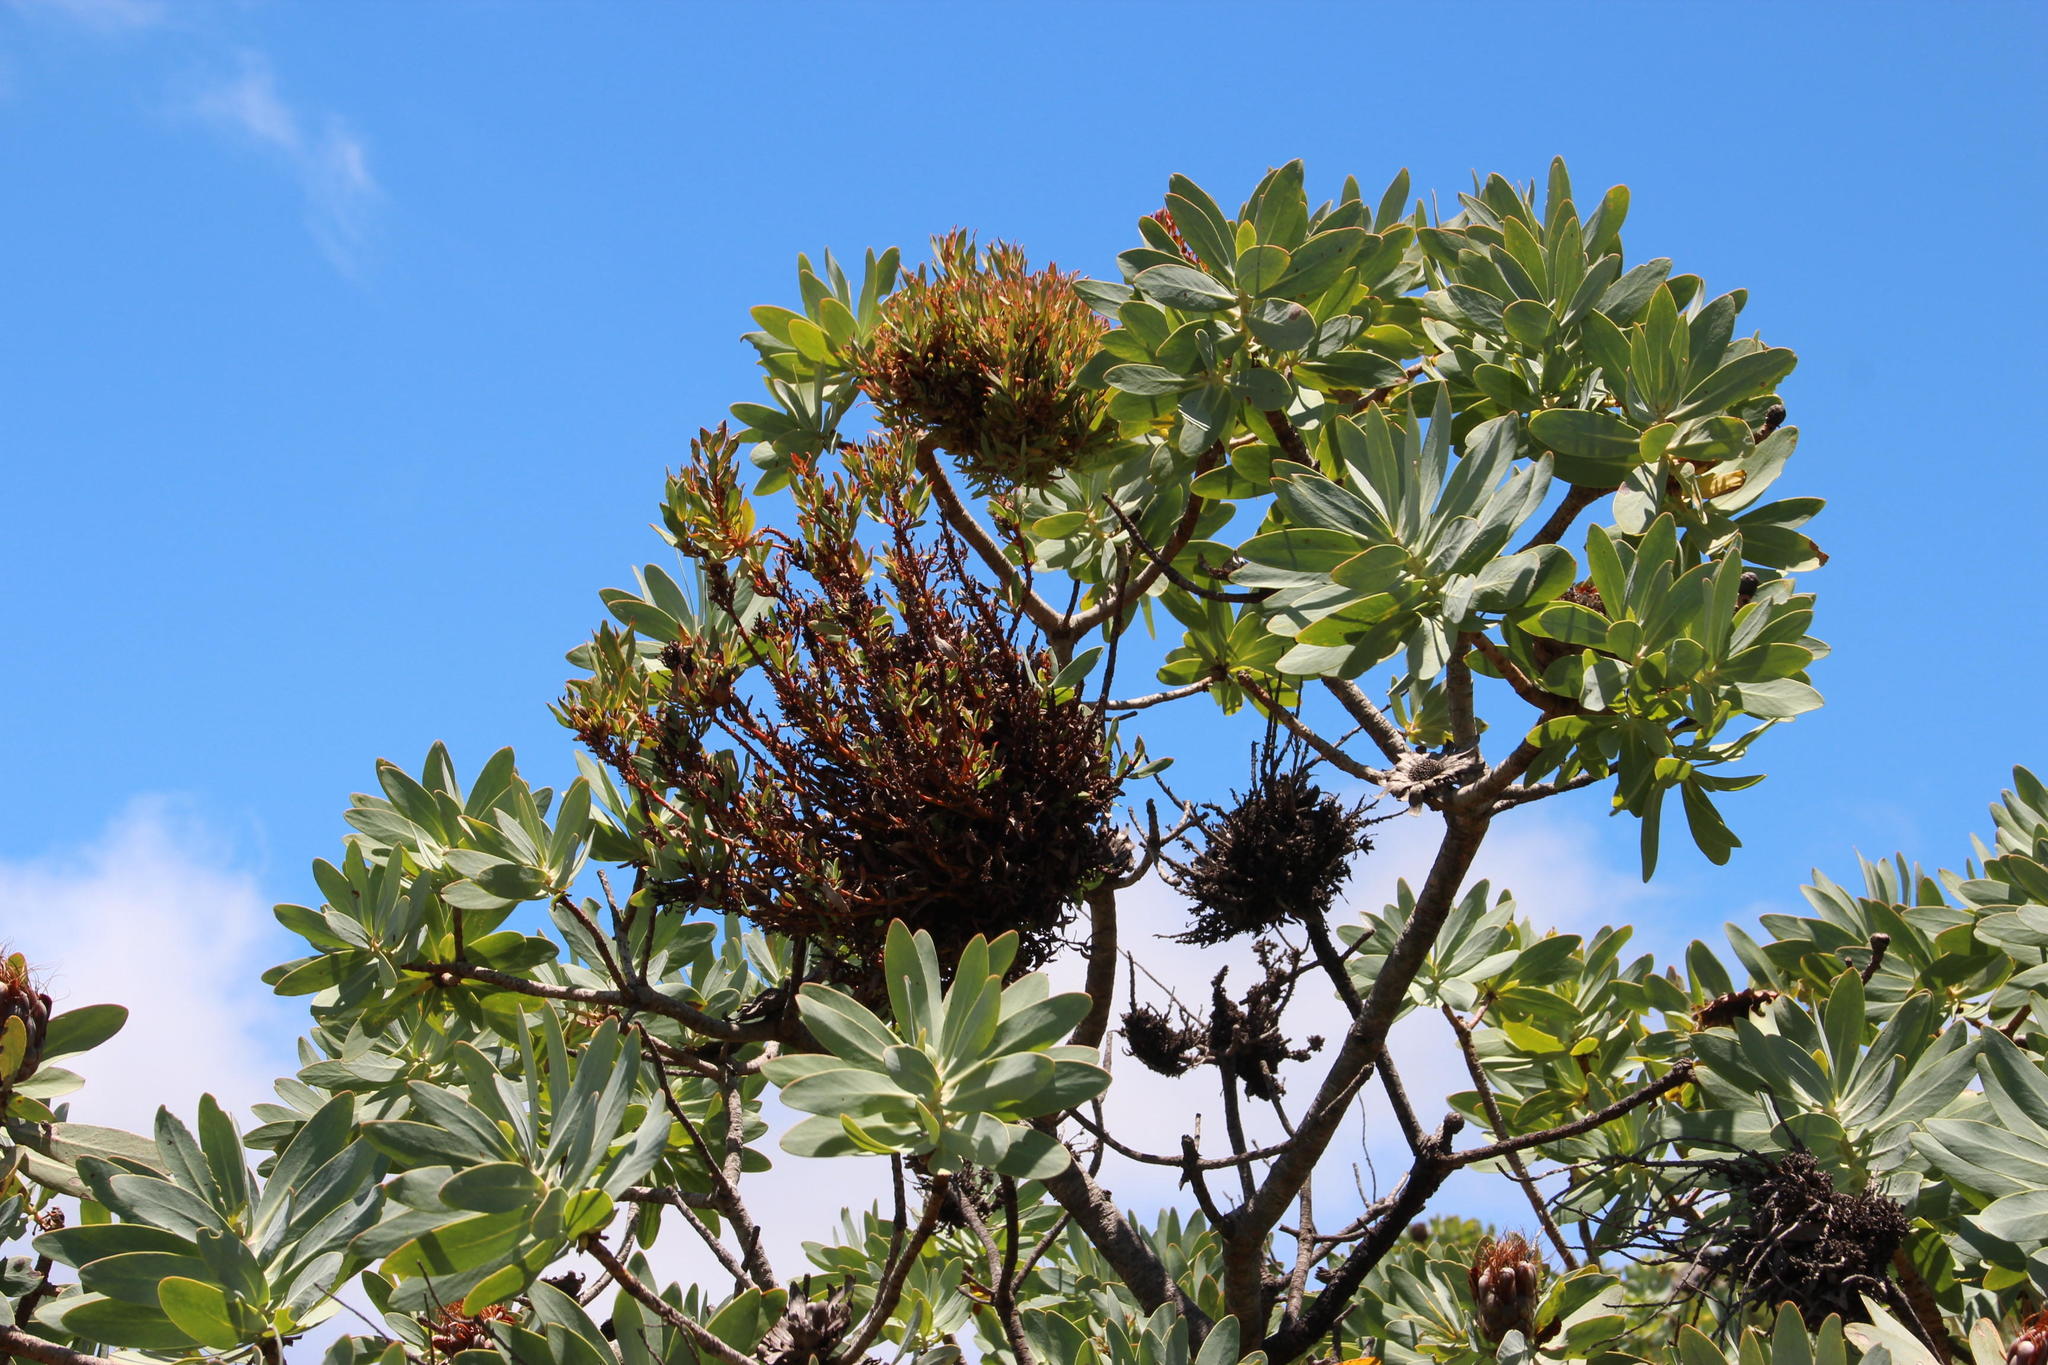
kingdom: Plantae
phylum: Tracheophyta
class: Magnoliopsida
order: Proteales
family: Proteaceae
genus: Protea
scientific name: Protea nitida
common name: Tree protea
